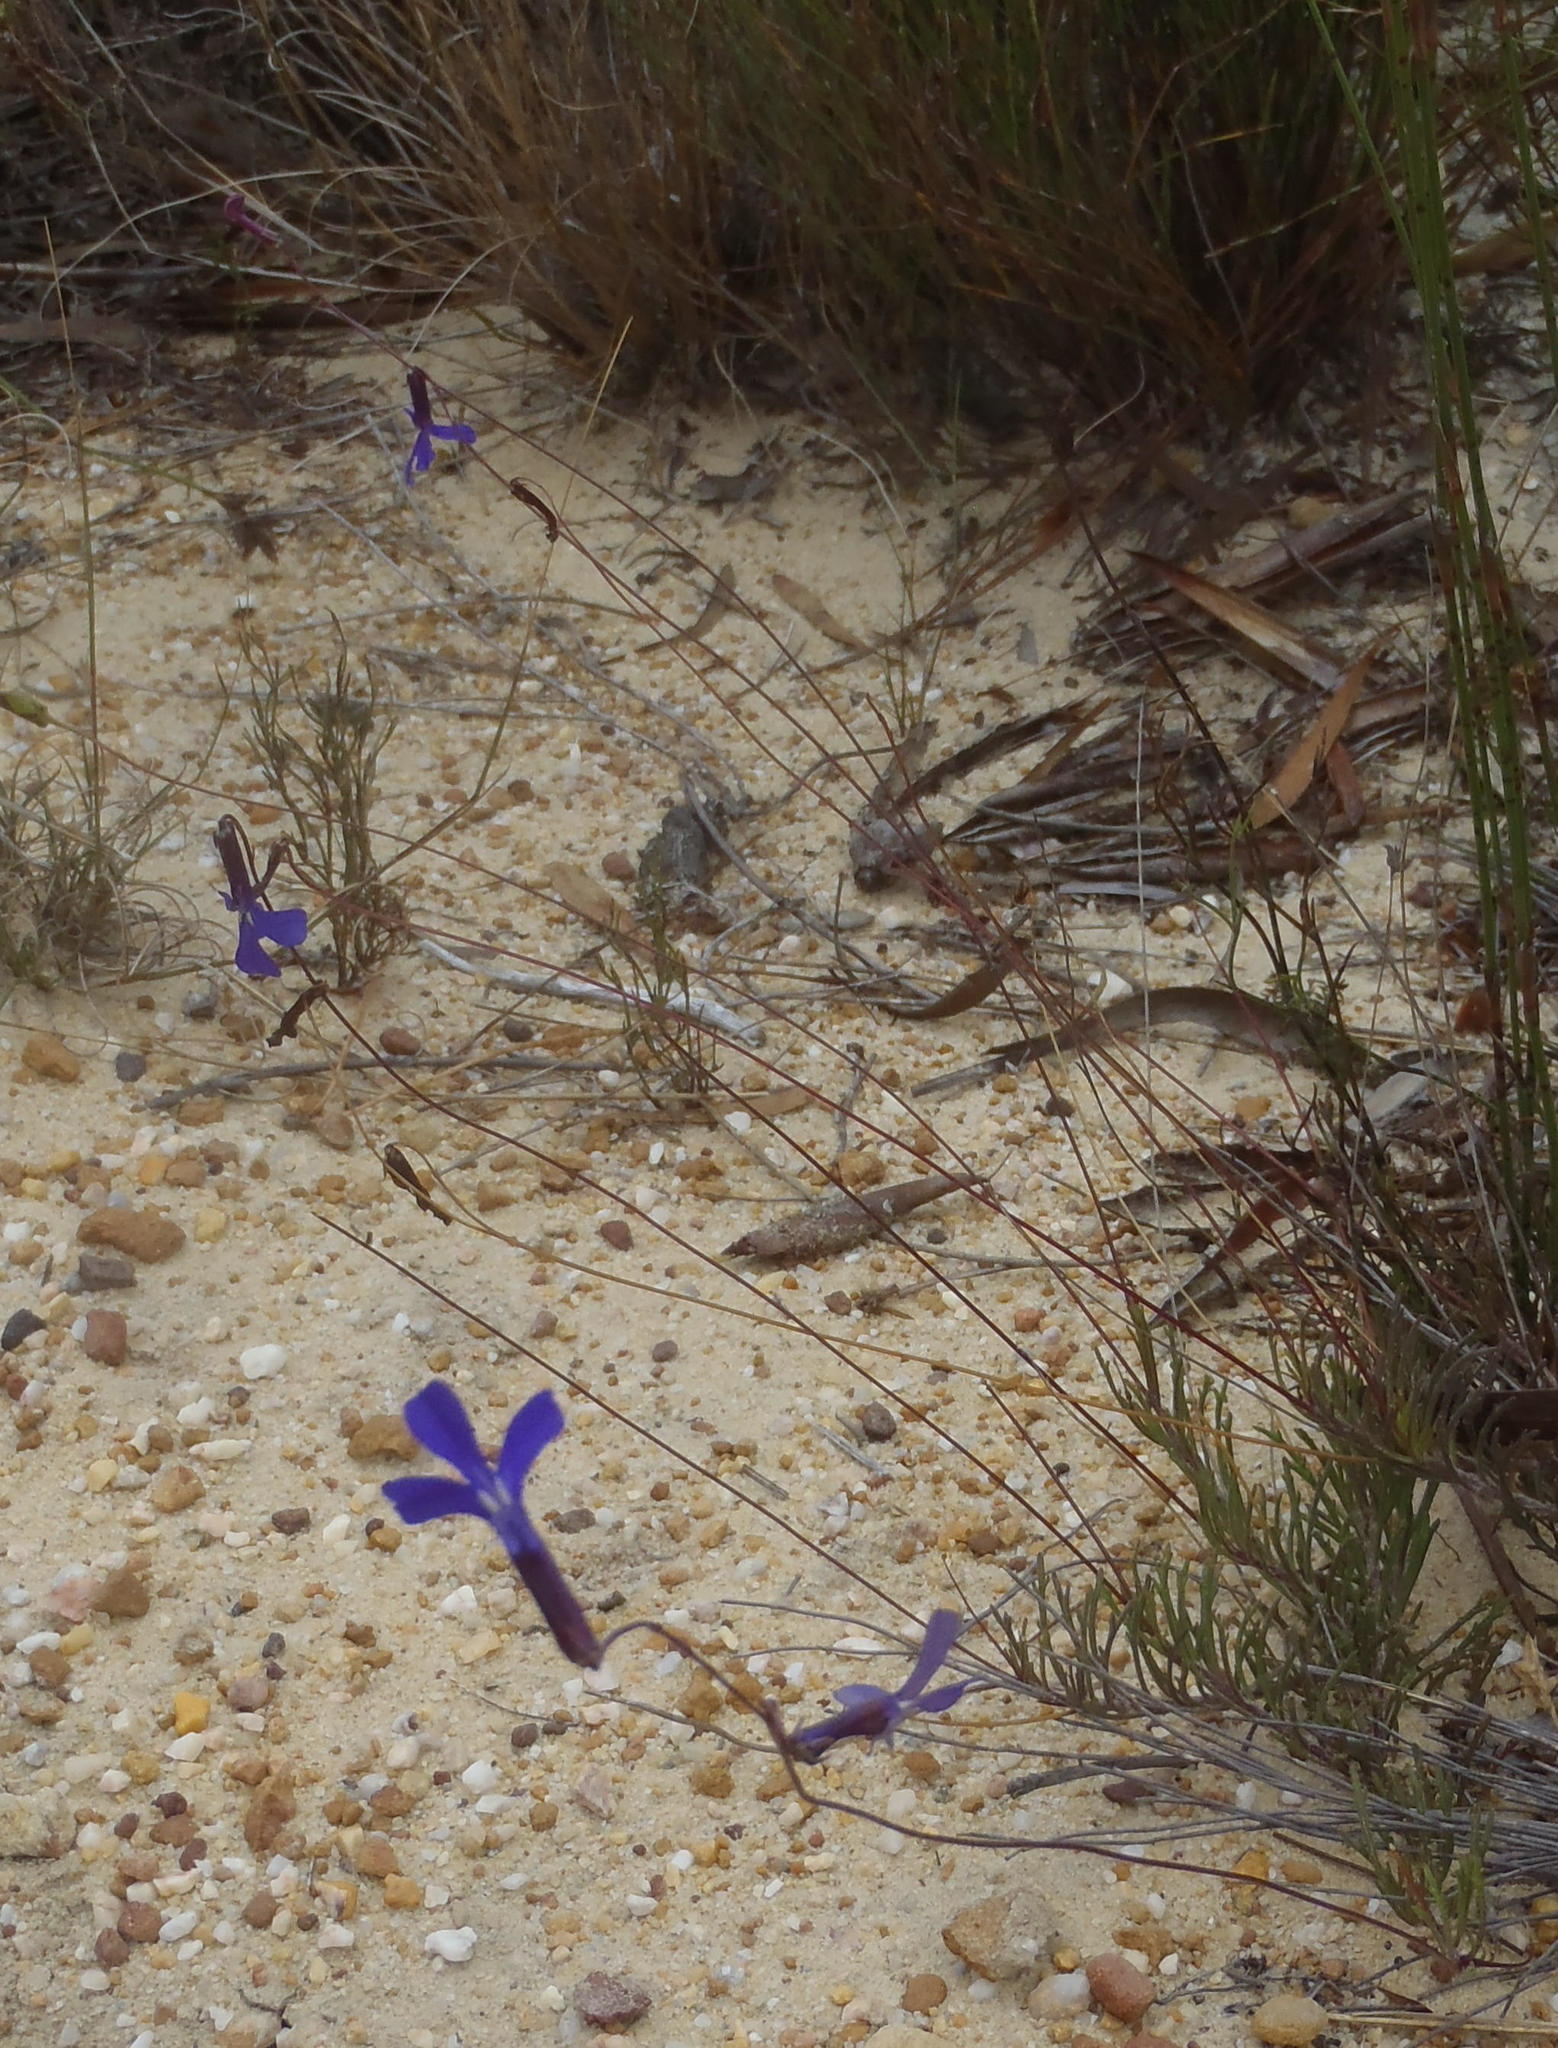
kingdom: Plantae
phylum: Tracheophyta
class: Magnoliopsida
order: Asterales
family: Campanulaceae
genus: Lobelia
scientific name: Lobelia chamaepitys
